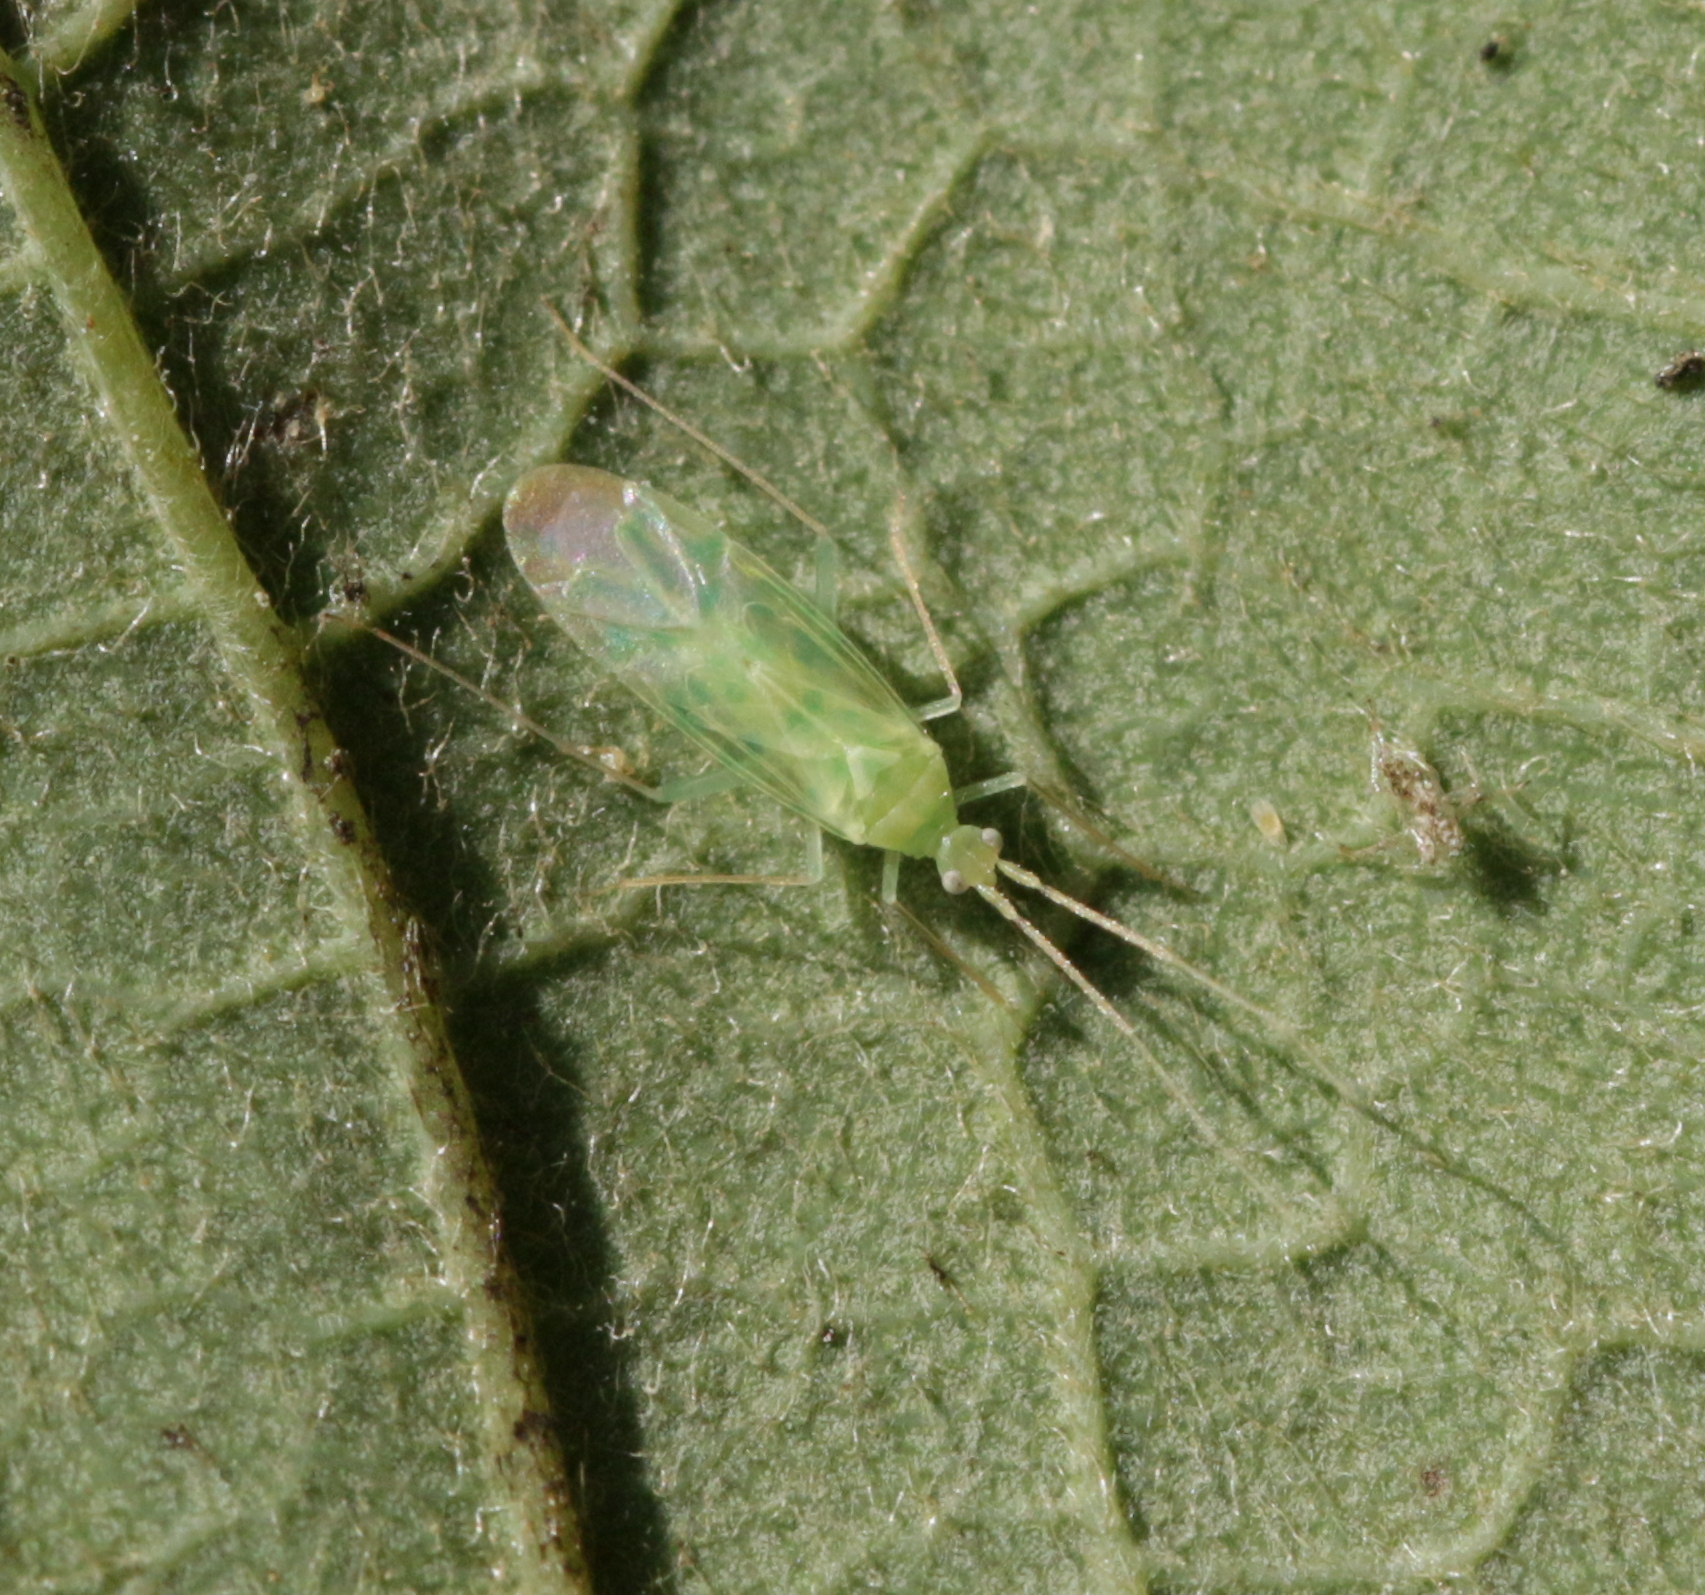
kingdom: Animalia
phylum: Arthropoda
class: Insecta
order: Hemiptera
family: Miridae
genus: Malacocoris
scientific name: Malacocoris chlorizans
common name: Plant bug
